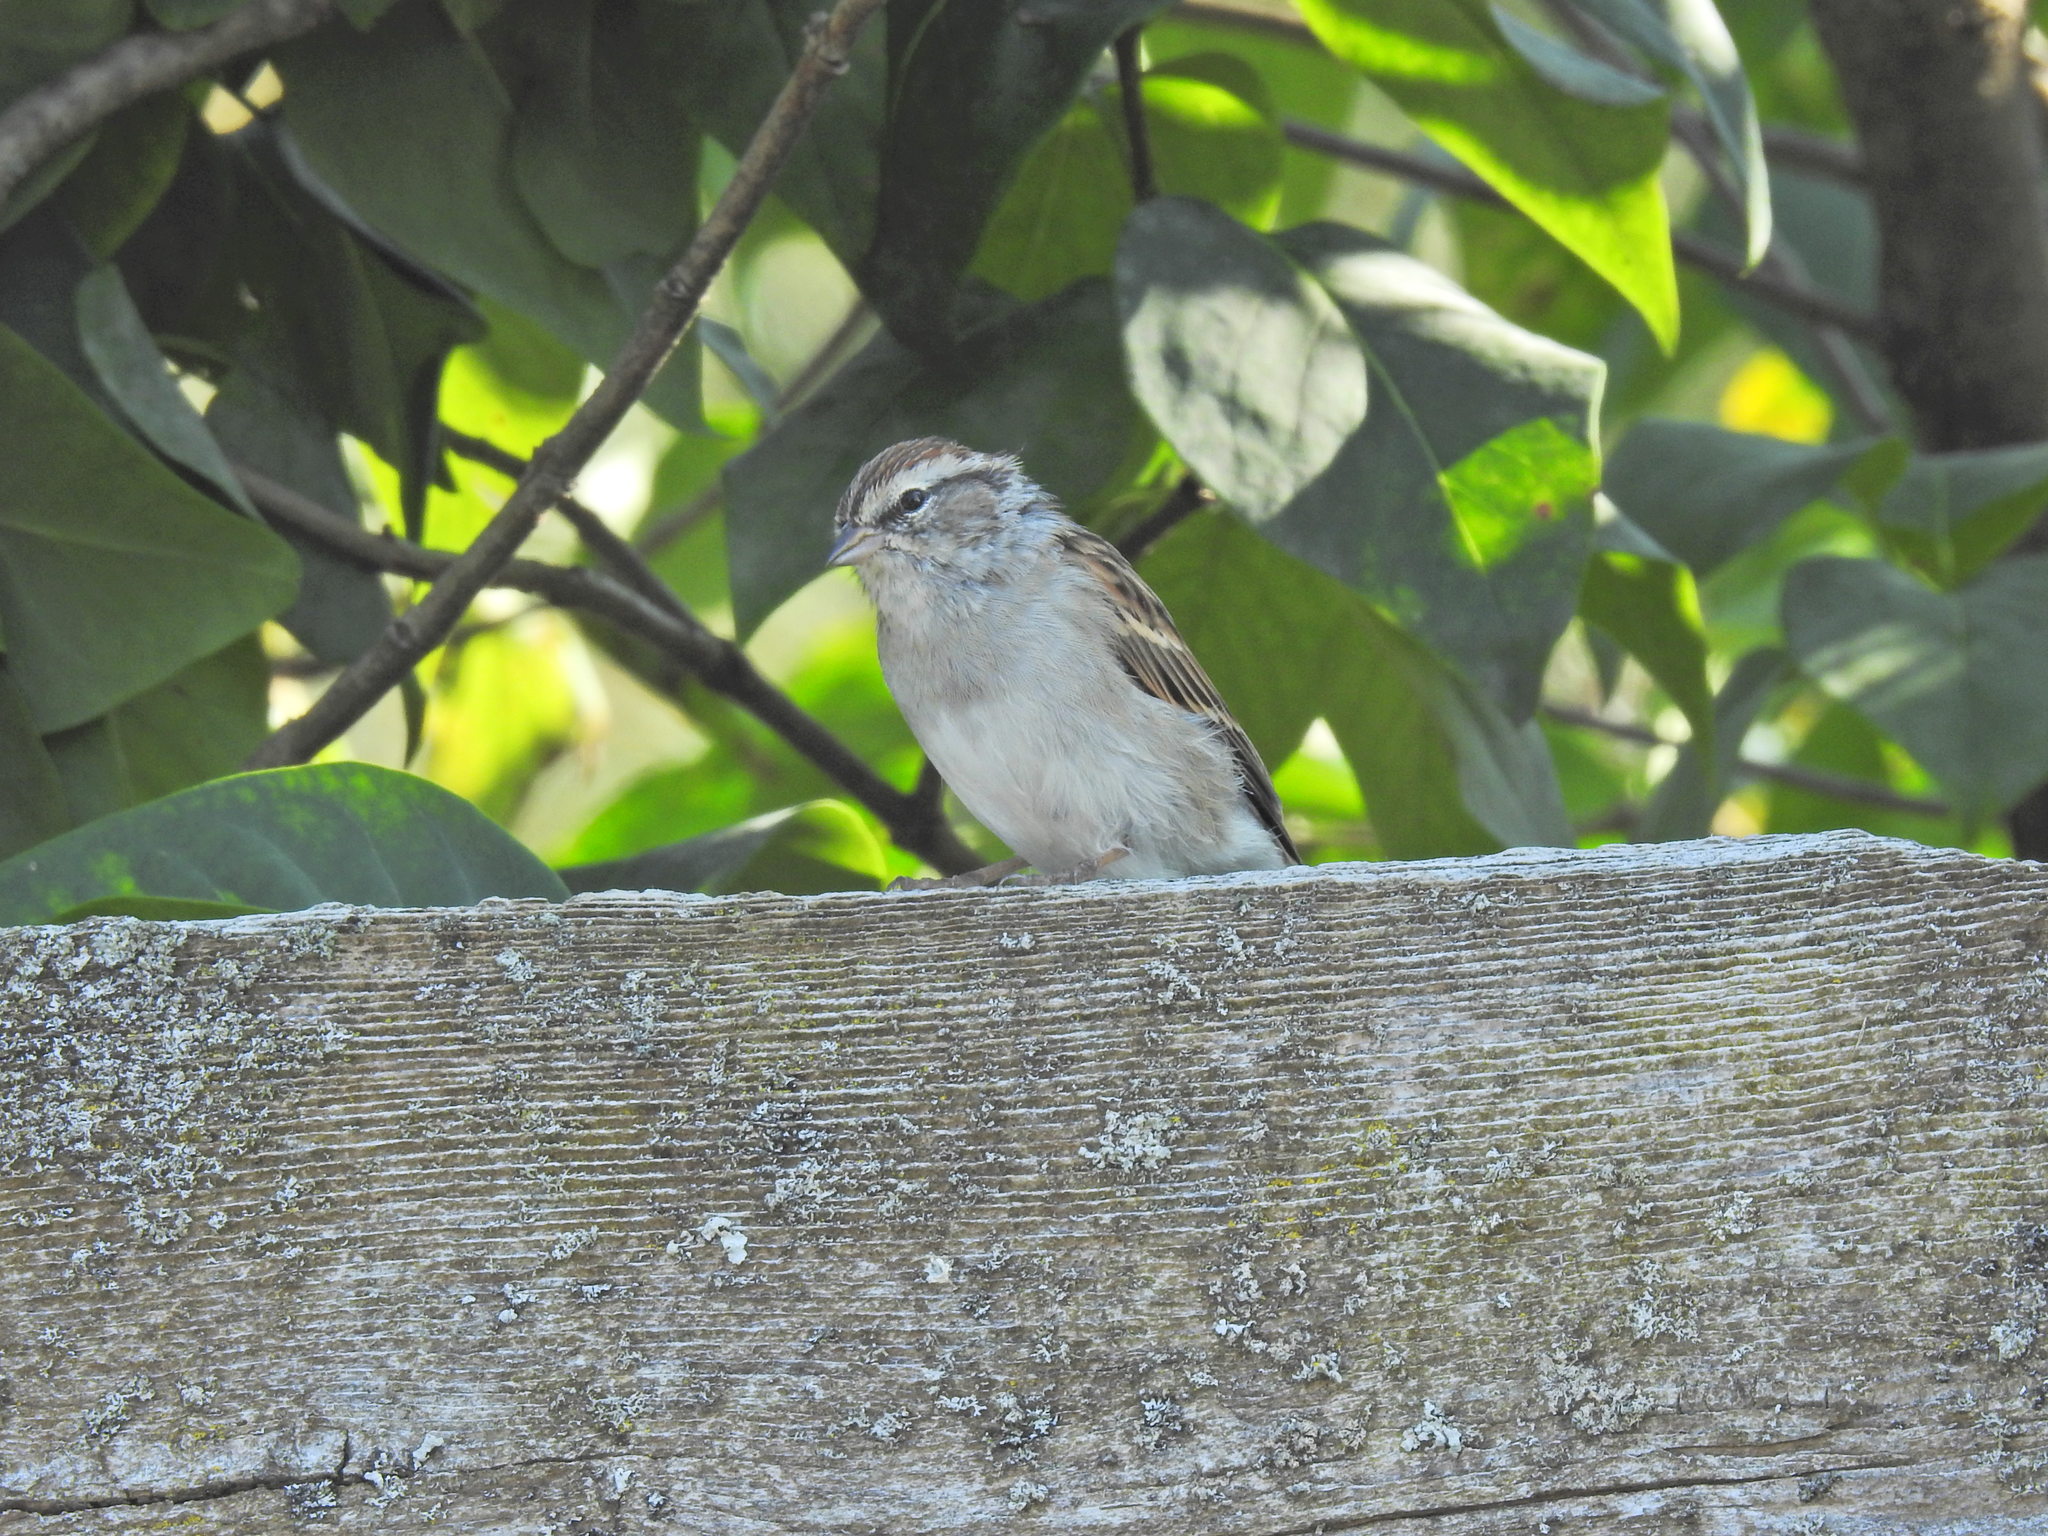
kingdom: Animalia
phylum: Chordata
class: Aves
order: Passeriformes
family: Passerellidae
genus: Spizella
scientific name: Spizella passerina
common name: Chipping sparrow
